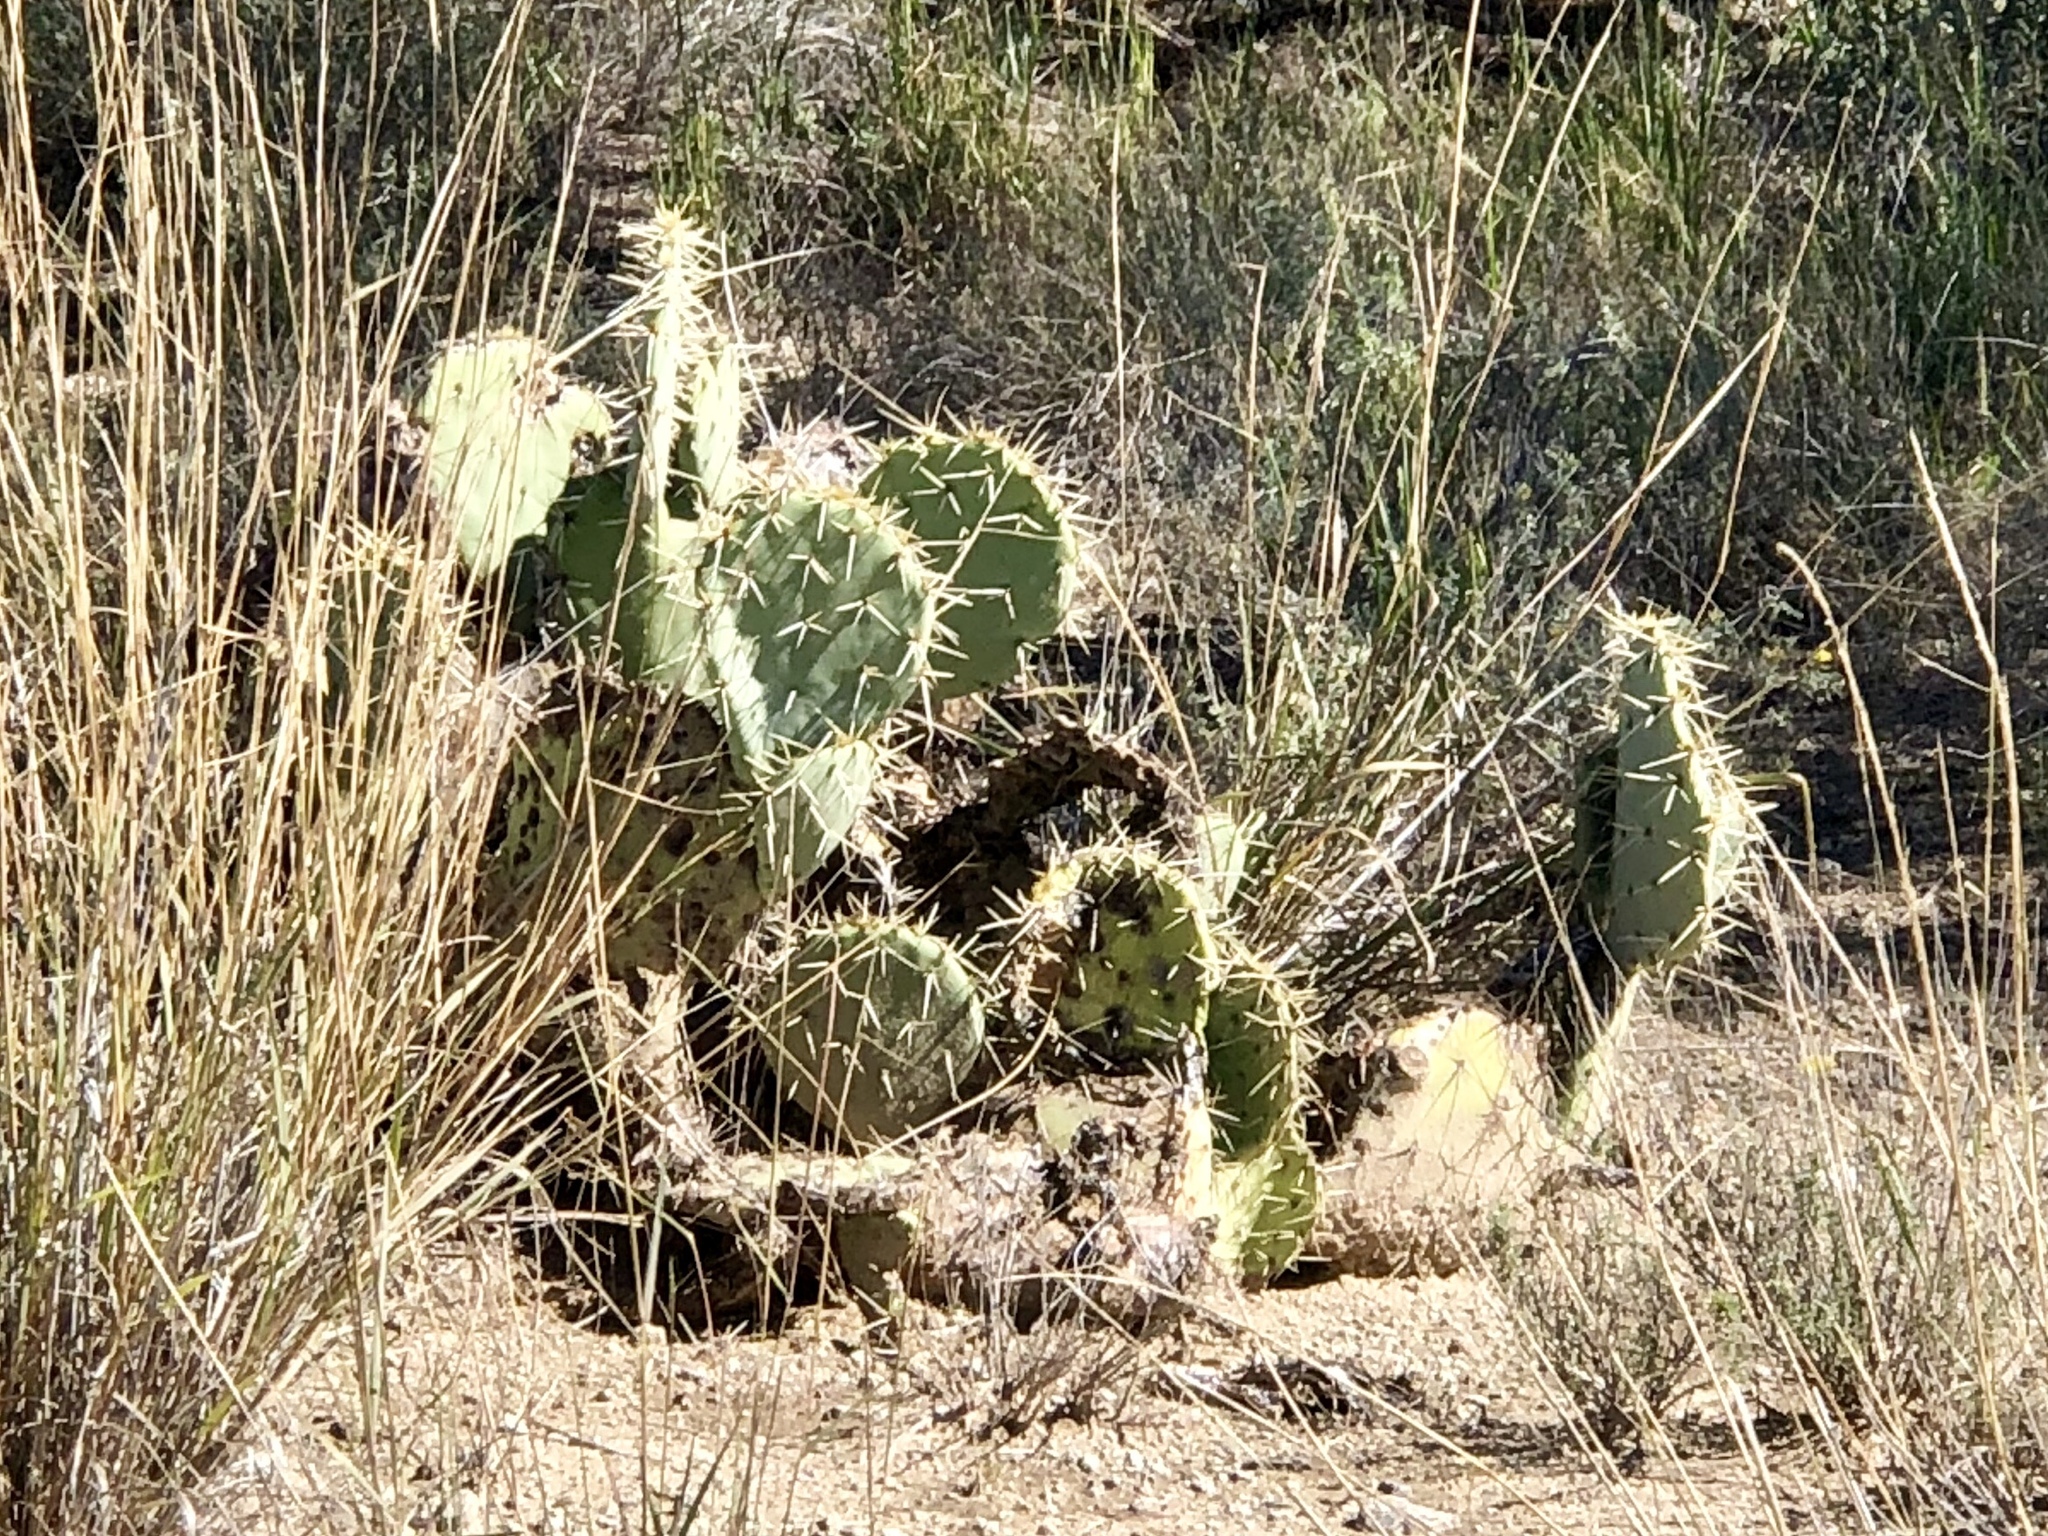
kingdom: Plantae
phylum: Tracheophyta
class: Magnoliopsida
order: Caryophyllales
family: Cactaceae
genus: Opuntia
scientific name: Opuntia engelmannii
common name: Cactus-apple
